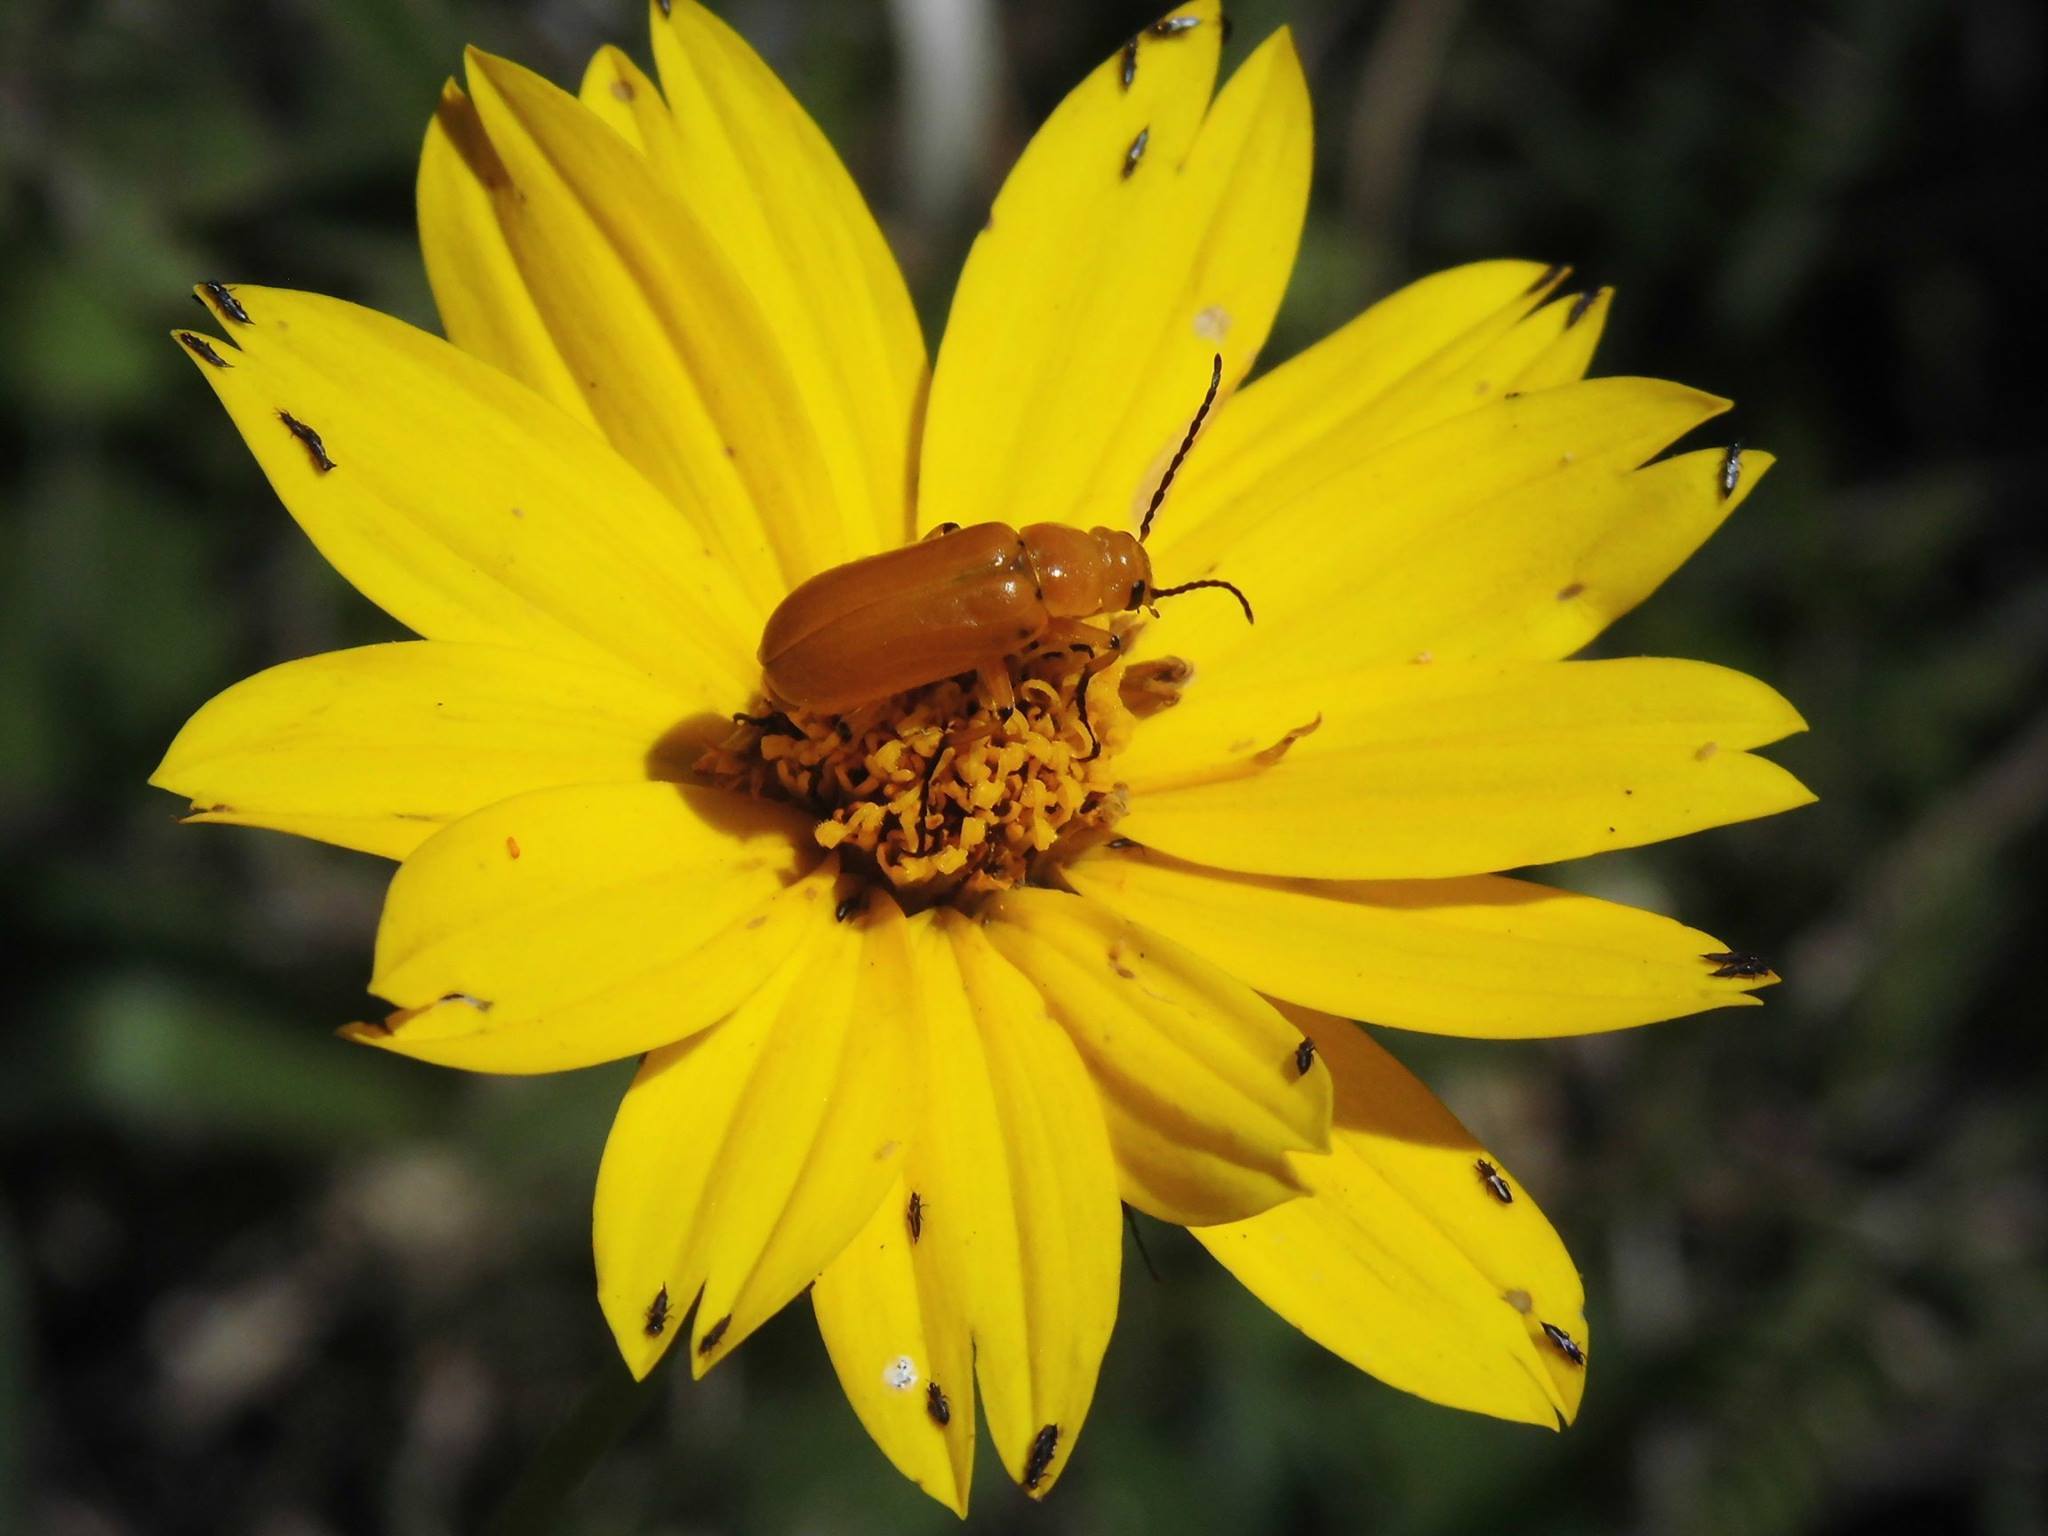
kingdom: Animalia
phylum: Arthropoda
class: Insecta
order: Coleoptera
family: Meloidae
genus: Nemognatha
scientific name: Nemognatha
